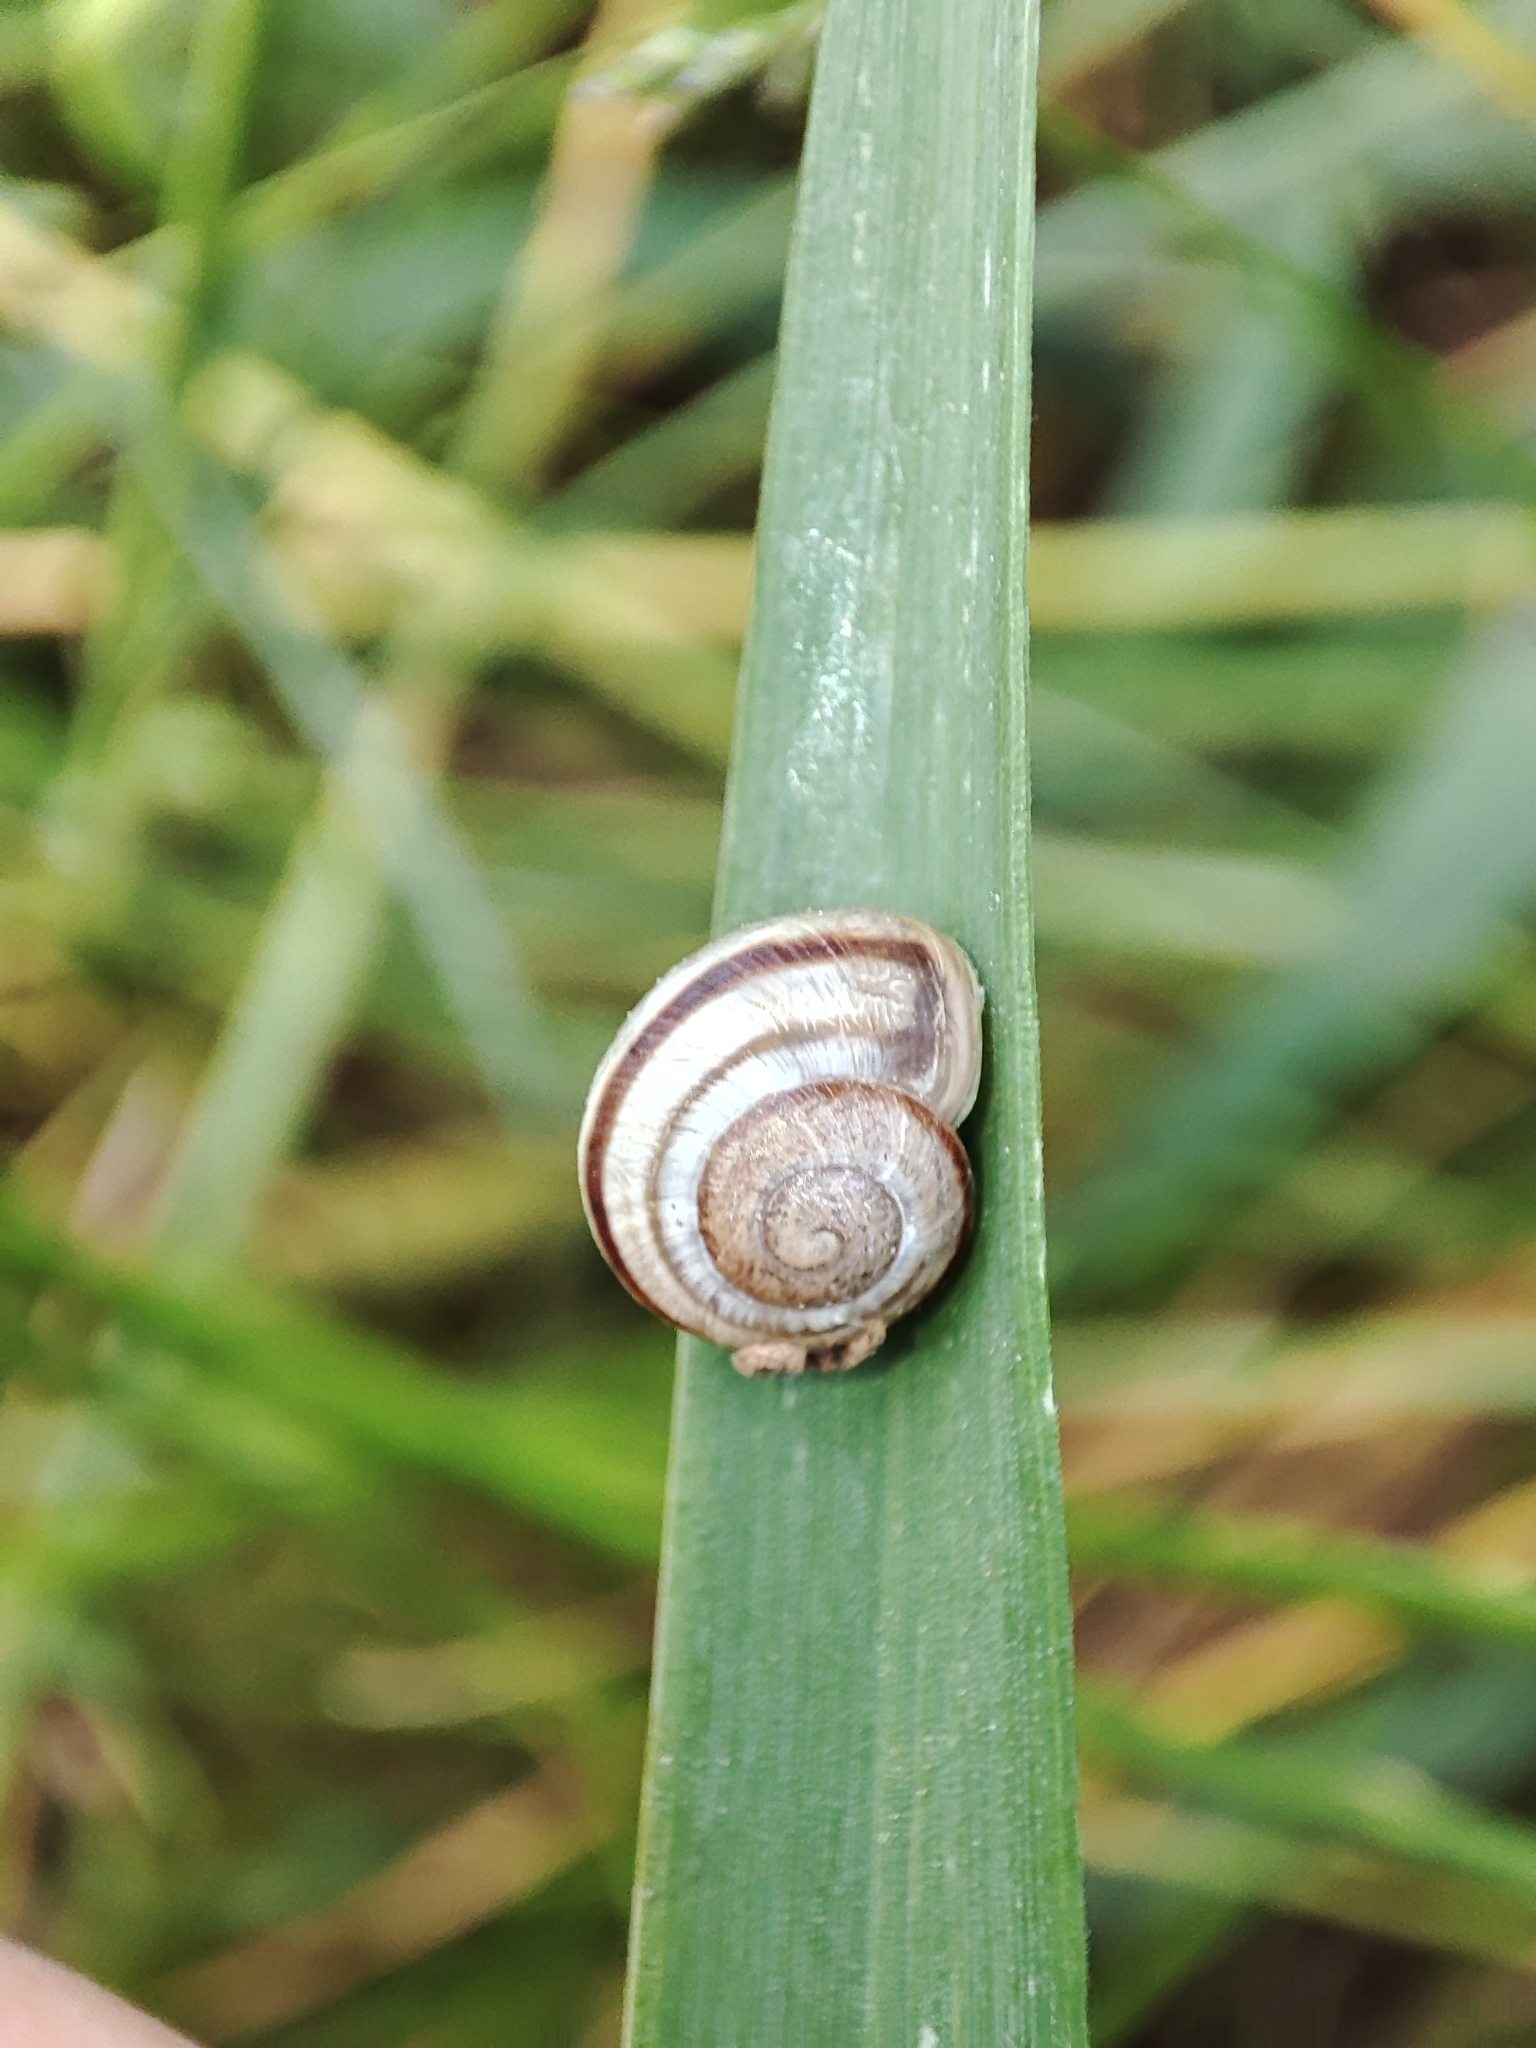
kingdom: Animalia
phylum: Mollusca
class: Gastropoda
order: Stylommatophora
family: Helicidae
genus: Caucasotachea
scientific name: Caucasotachea vindobonensis
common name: European helicid land snail
